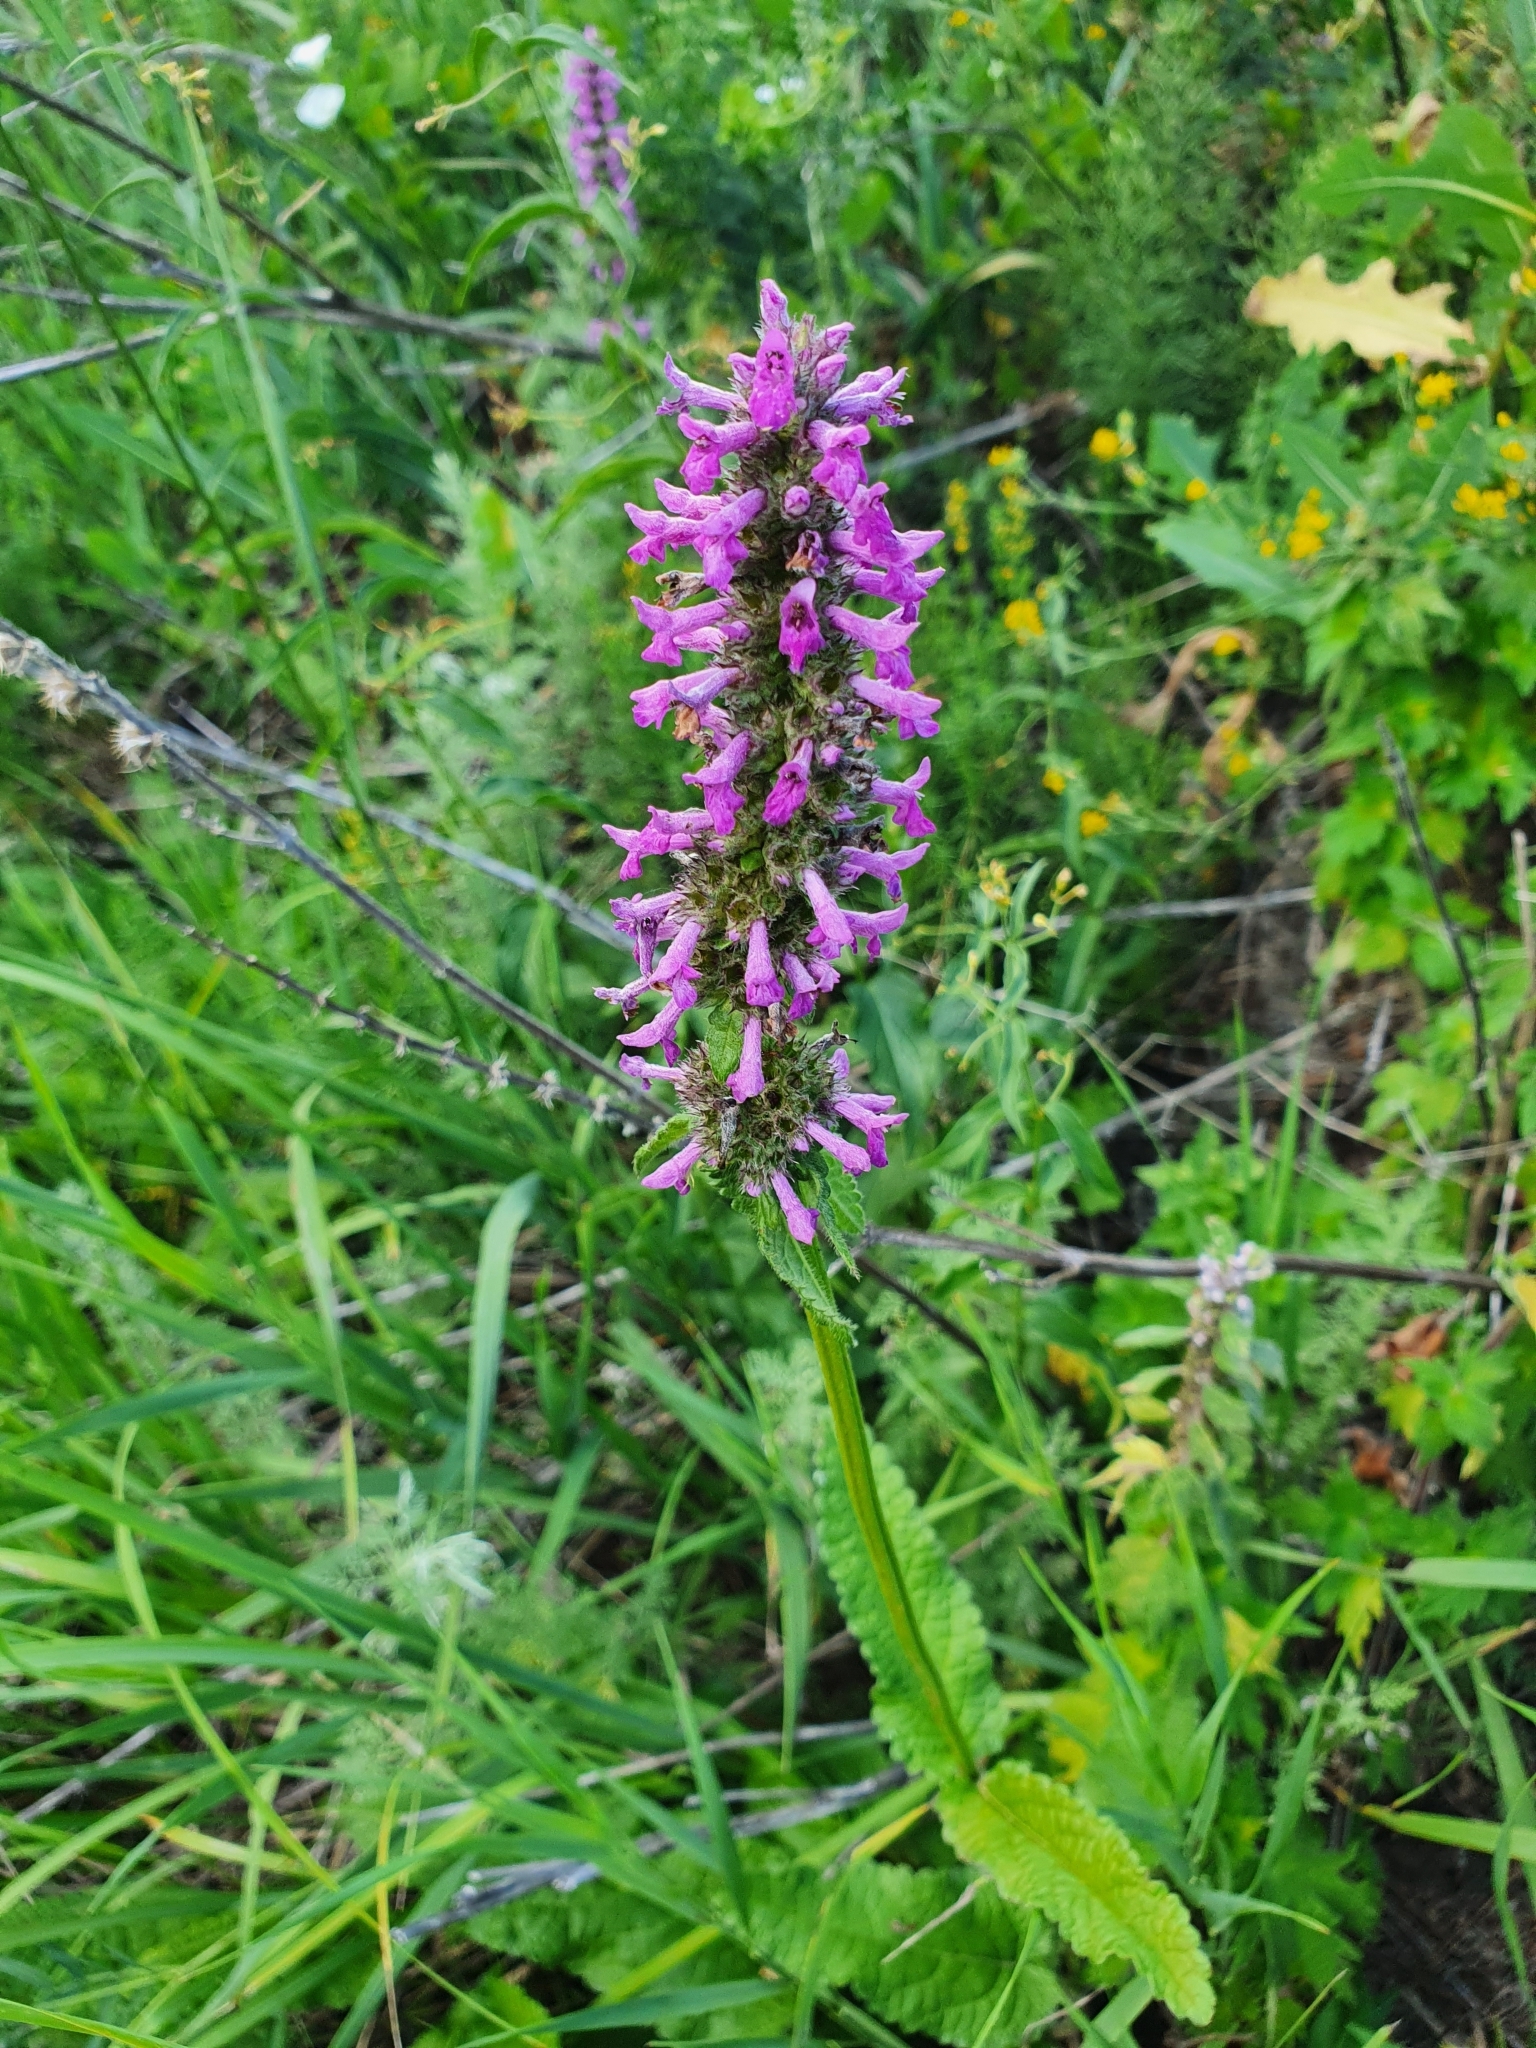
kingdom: Plantae
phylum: Tracheophyta
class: Magnoliopsida
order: Lamiales
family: Lamiaceae
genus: Betonica
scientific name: Betonica officinalis
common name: Bishop's-wort
